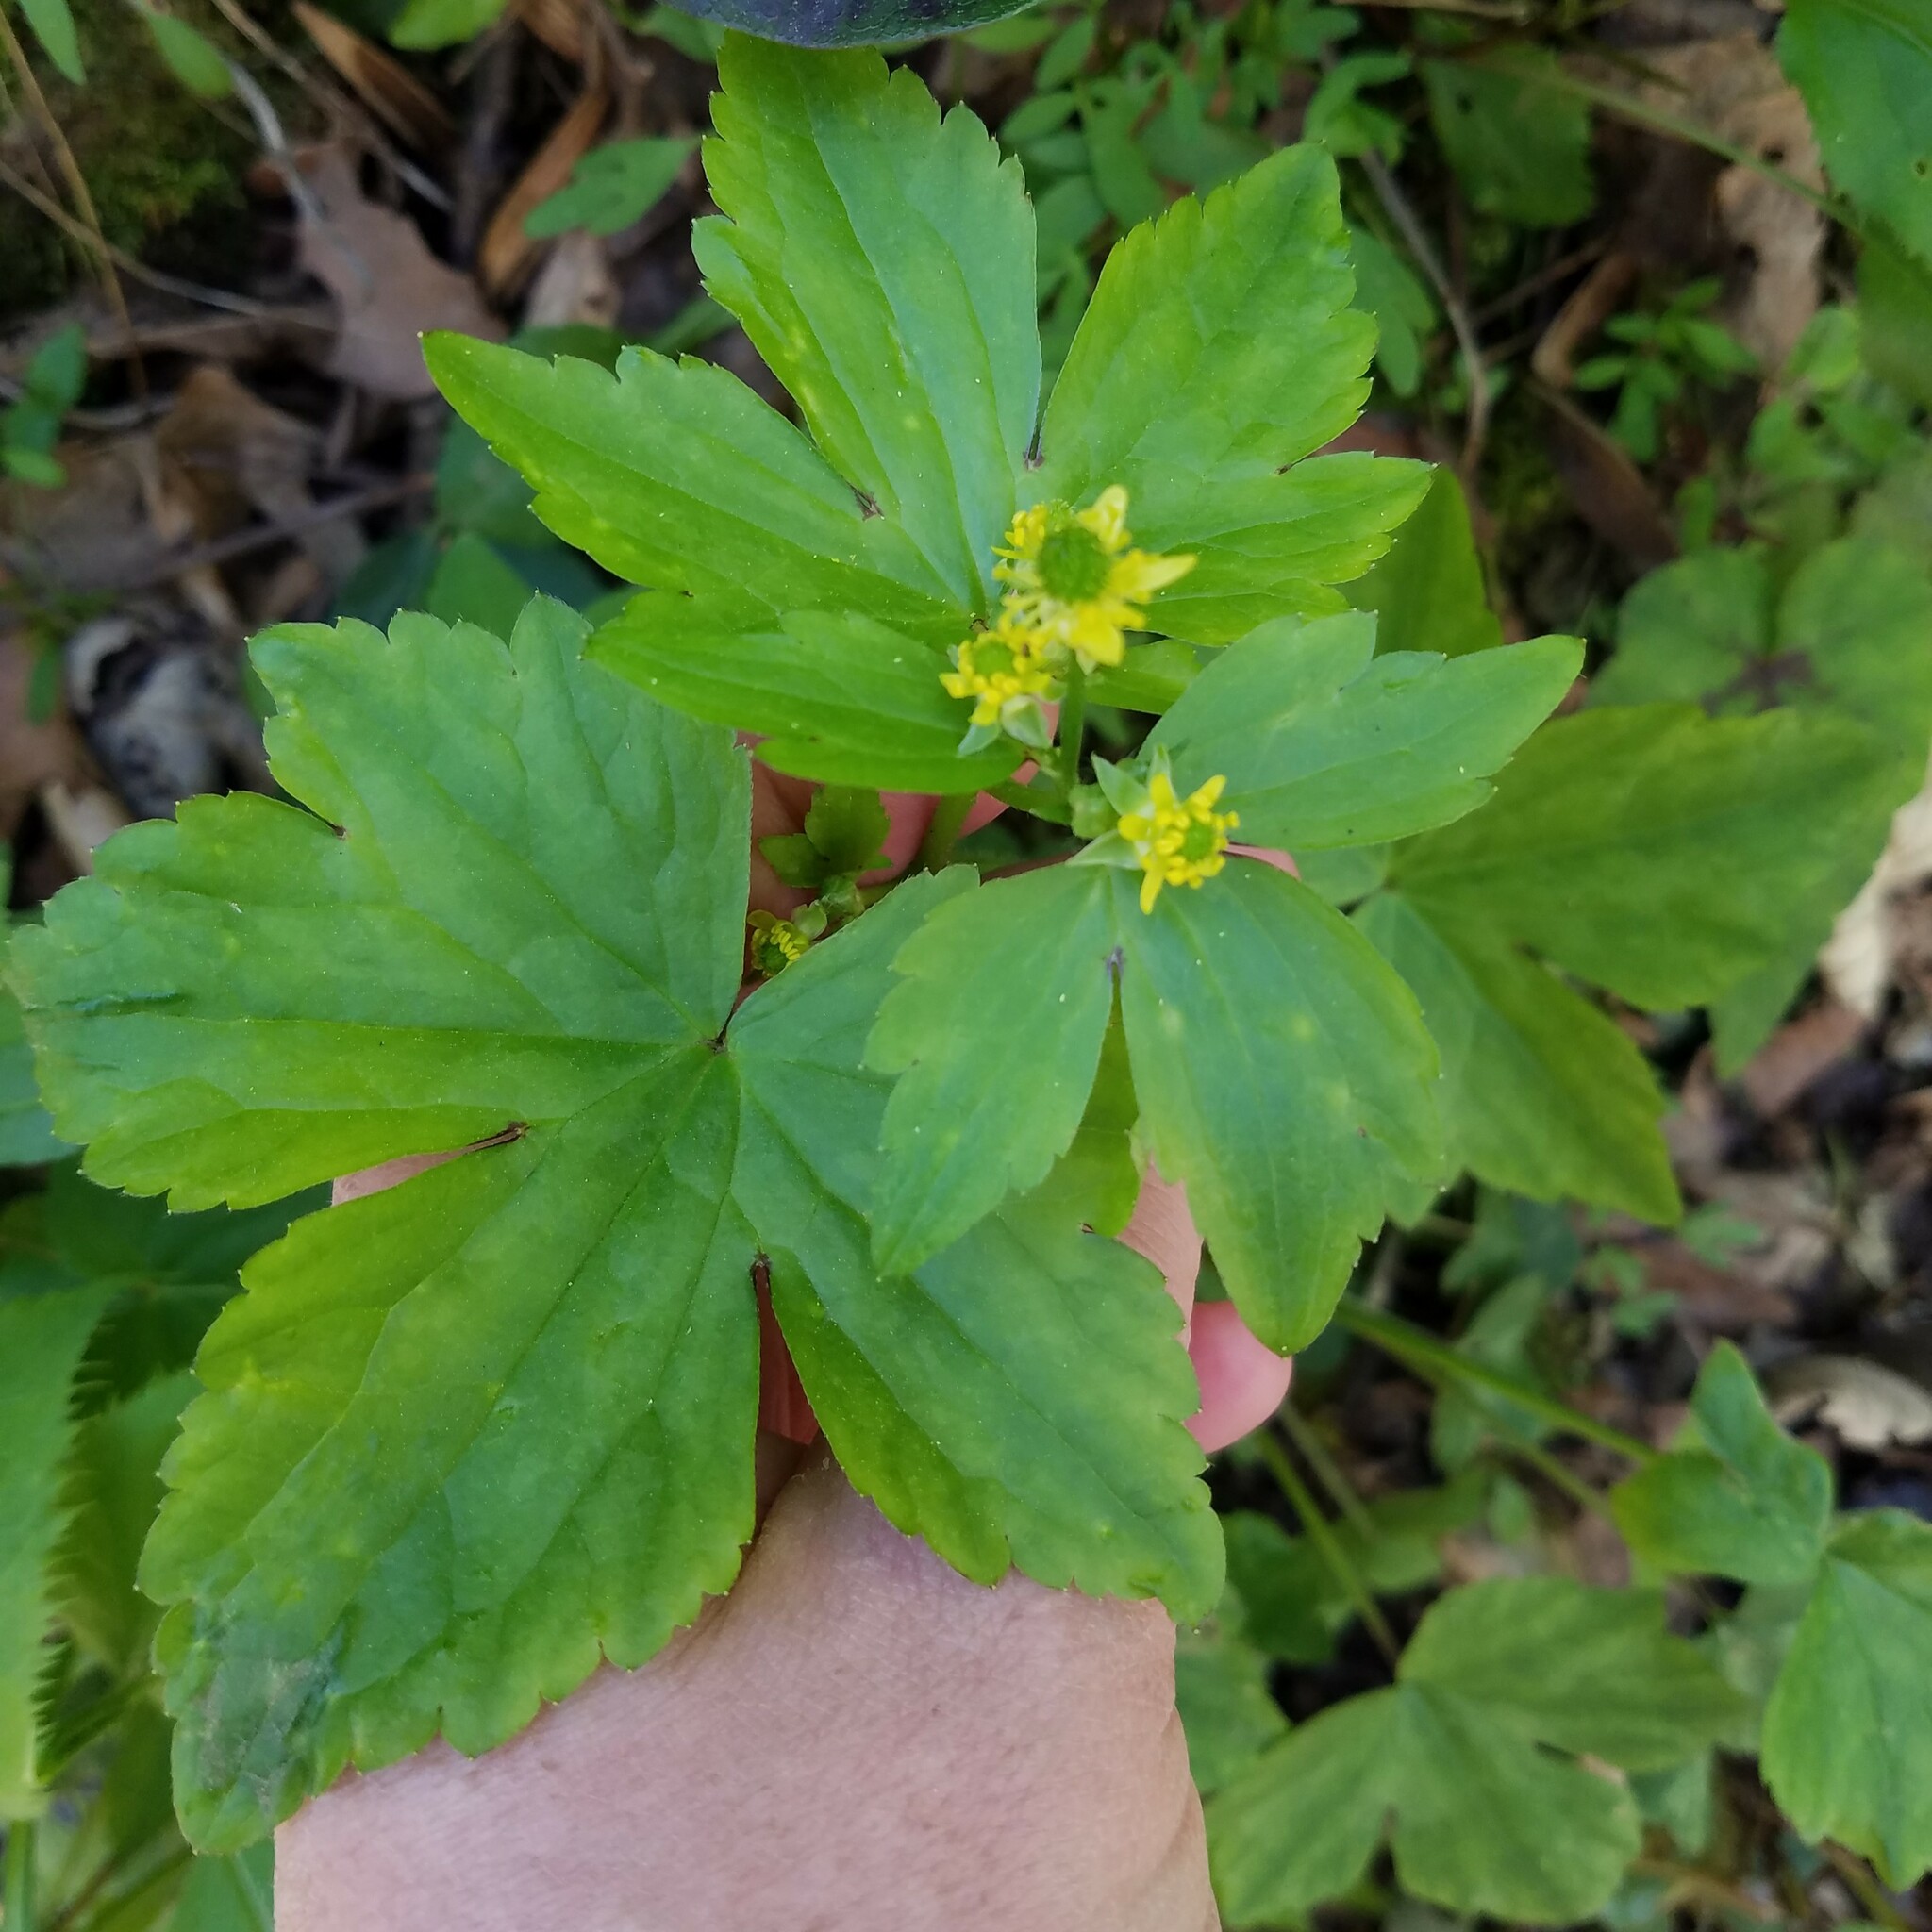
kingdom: Plantae
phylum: Tracheophyta
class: Magnoliopsida
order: Ranunculales
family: Ranunculaceae
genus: Ranunculus
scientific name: Ranunculus recurvatus
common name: Blisterwort
